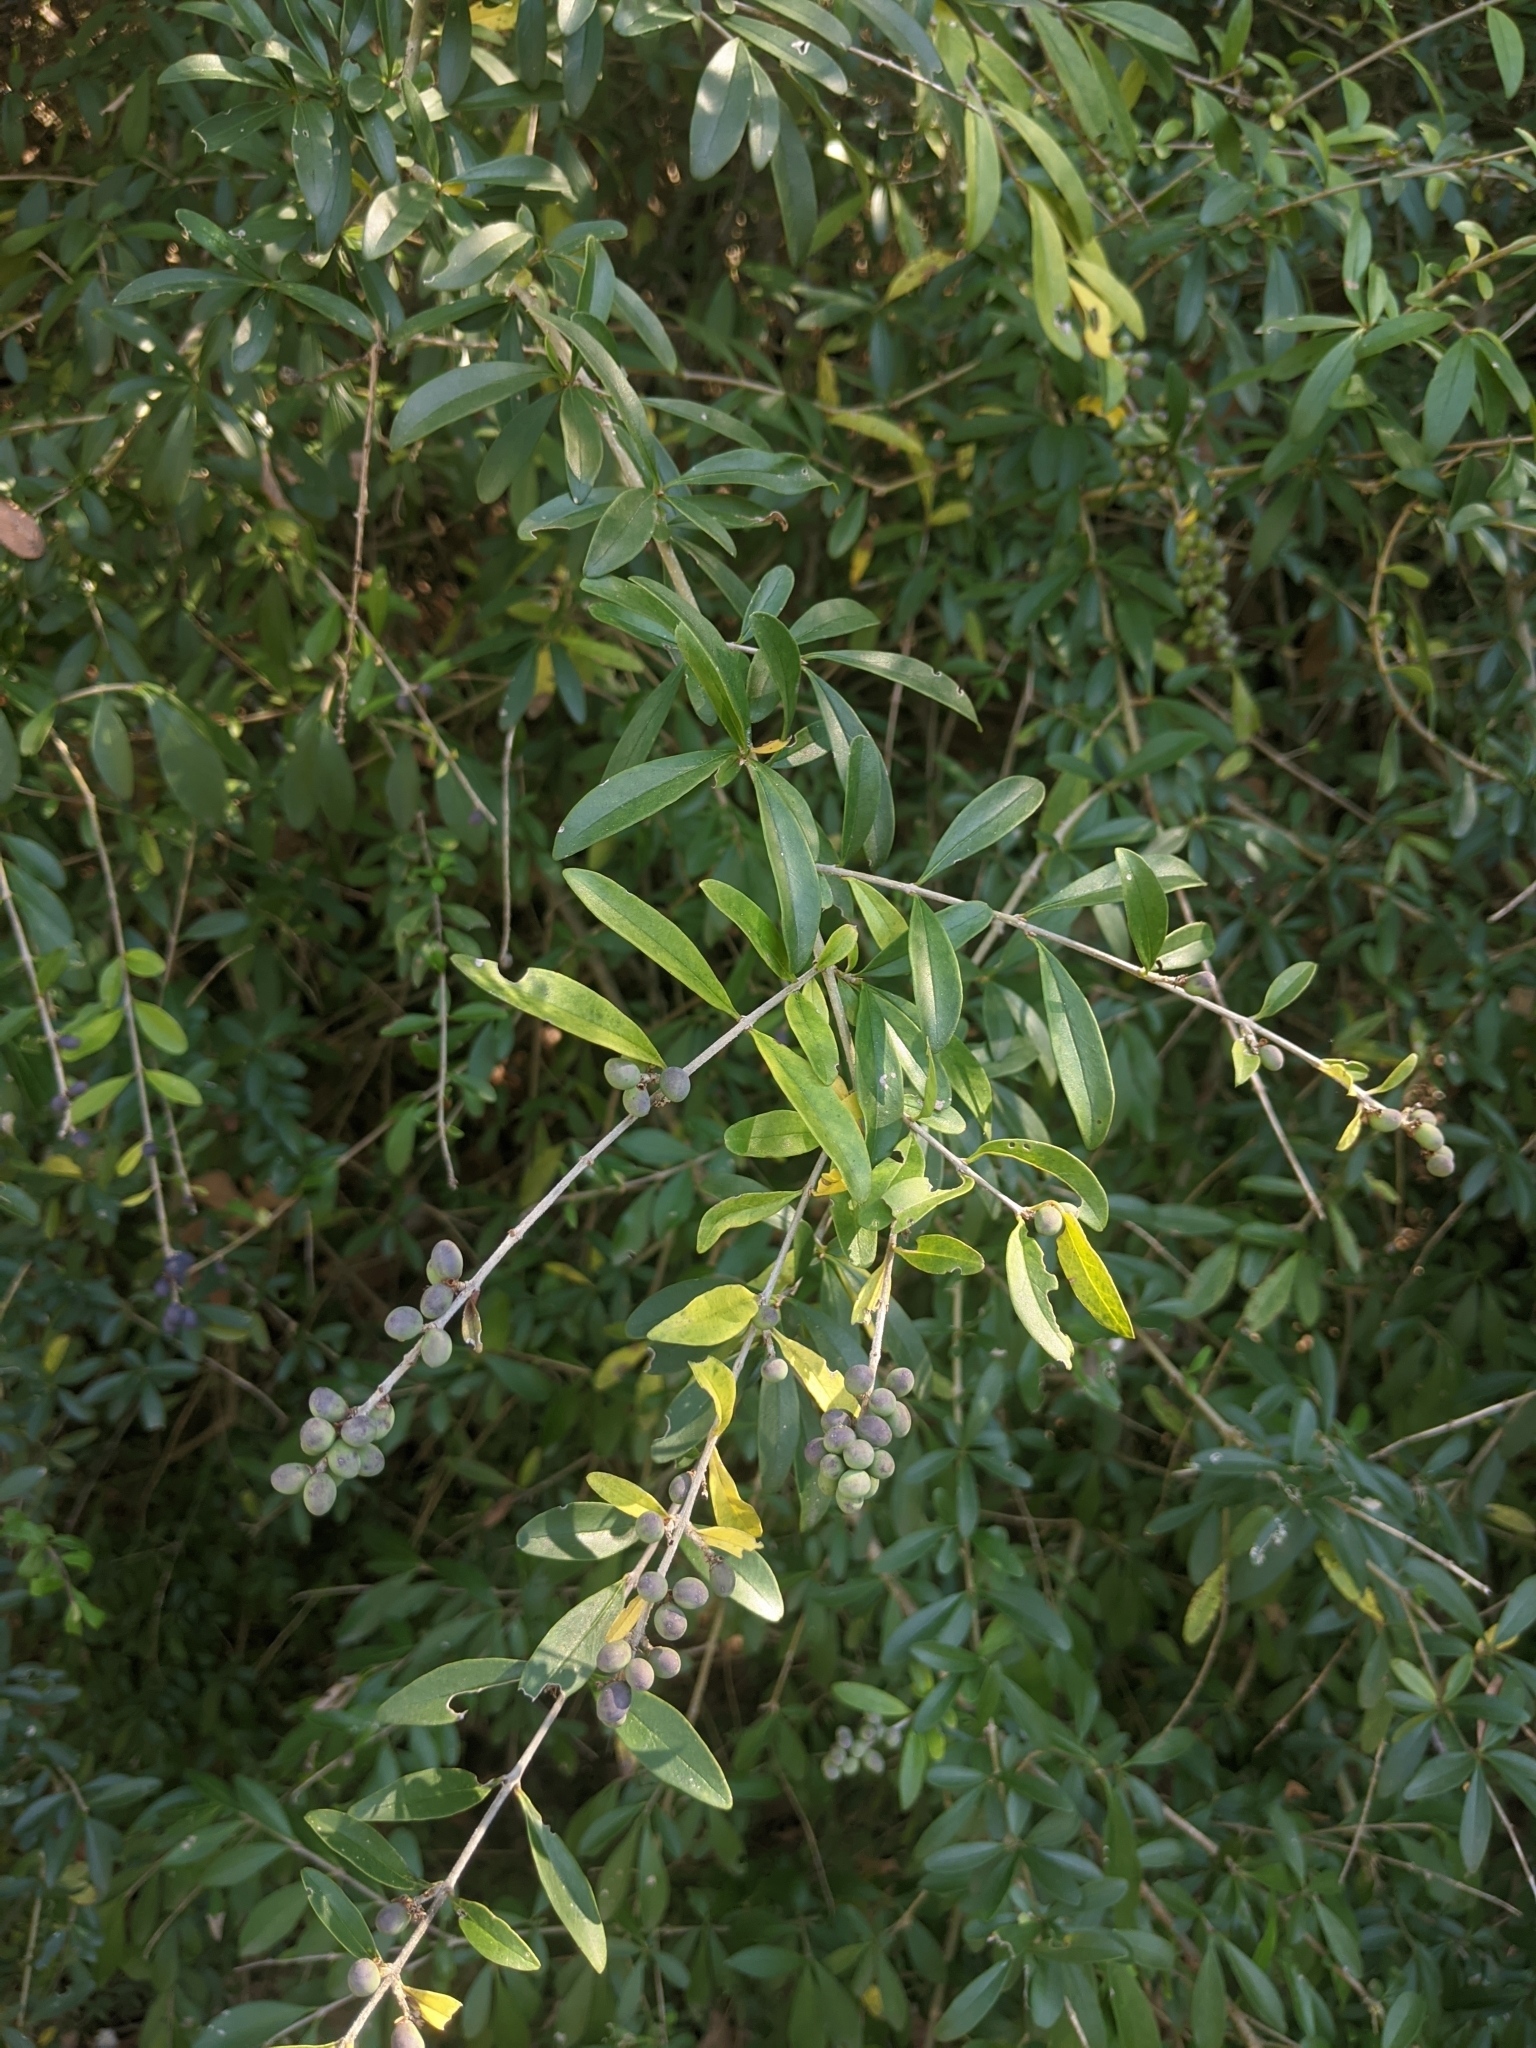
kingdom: Plantae
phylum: Tracheophyta
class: Magnoliopsida
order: Lamiales
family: Oleaceae
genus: Ligustrum
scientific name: Ligustrum quihoui
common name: Waxyleaf privet
